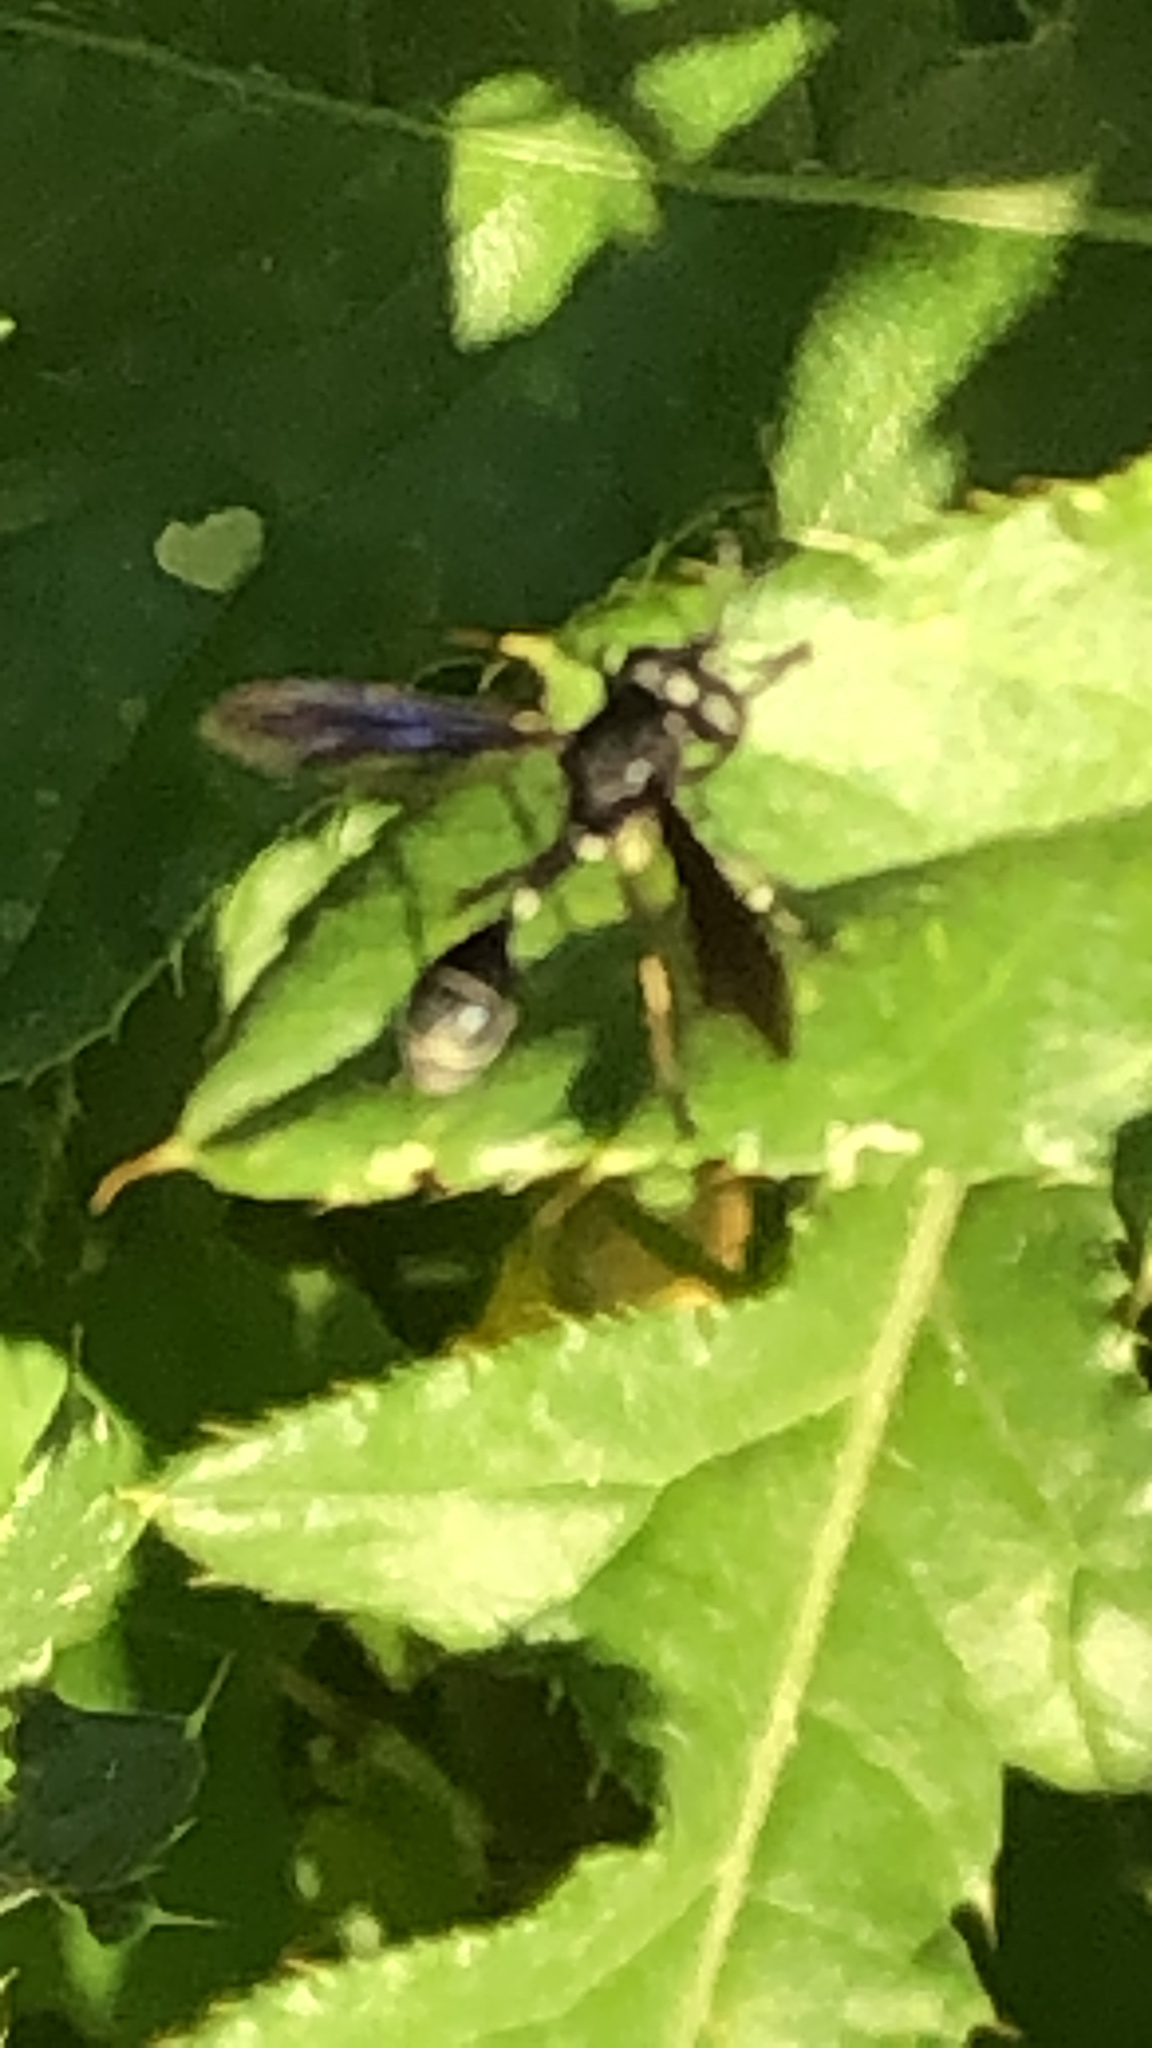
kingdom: Animalia
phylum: Arthropoda
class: Insecta
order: Diptera
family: Conopidae
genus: Physocephala
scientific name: Physocephala tibialis
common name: Common eastern physocephala
